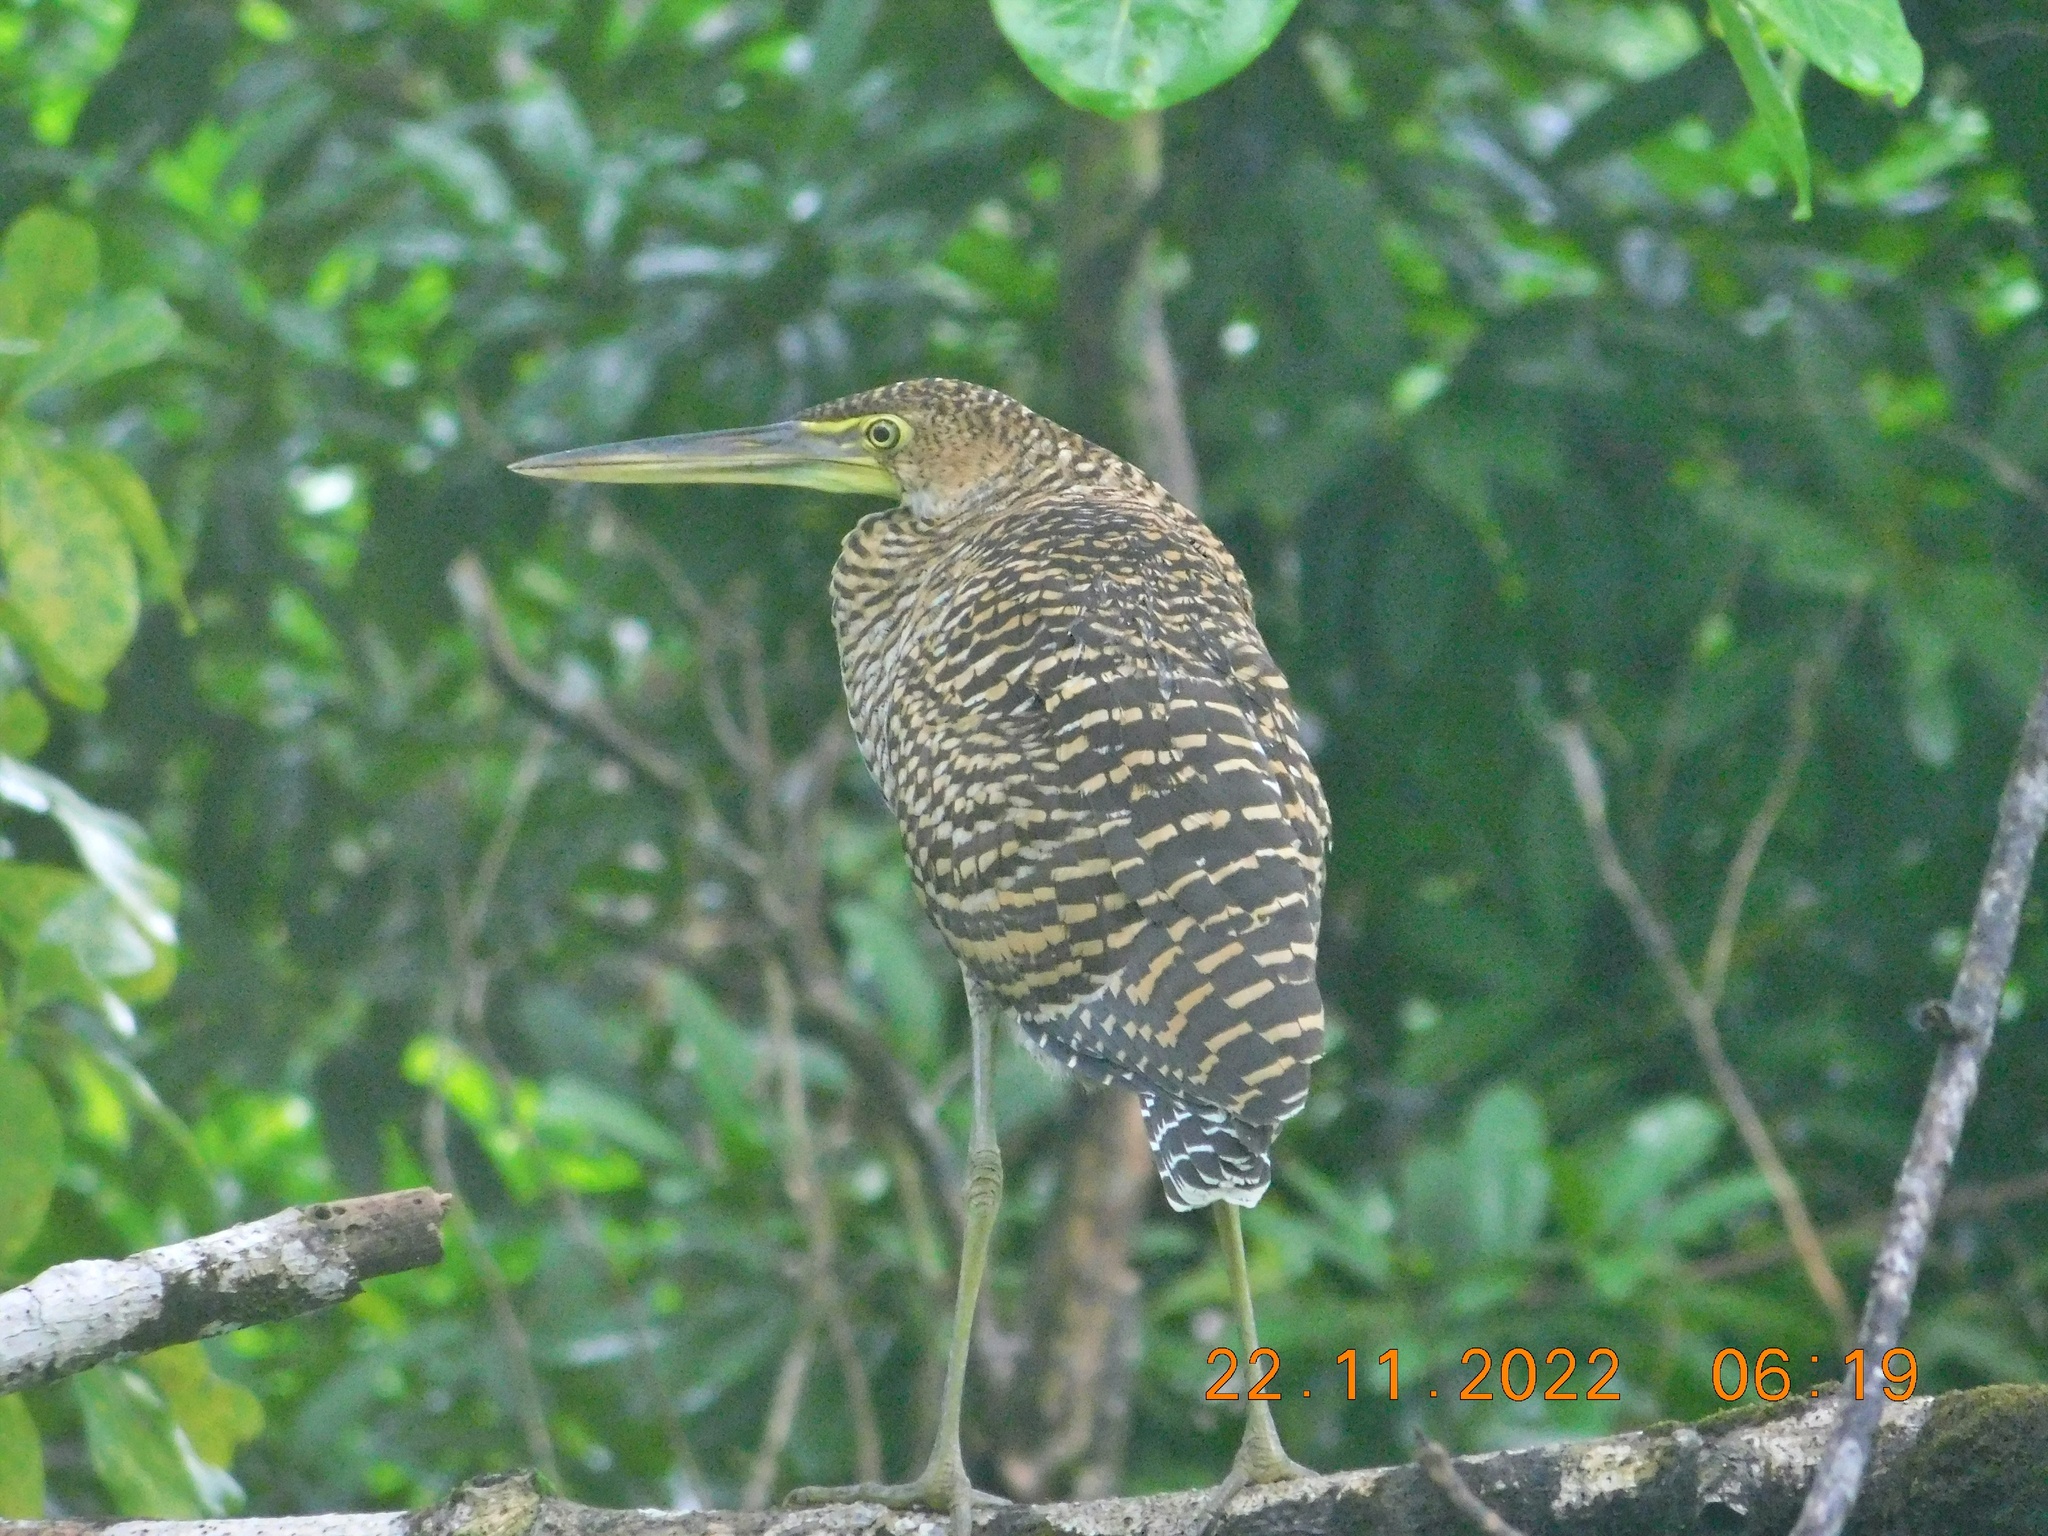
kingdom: Animalia
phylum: Chordata
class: Aves
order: Pelecaniformes
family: Ardeidae
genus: Tigrisoma
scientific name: Tigrisoma mexicanum
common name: Bare-throated tiger-heron
